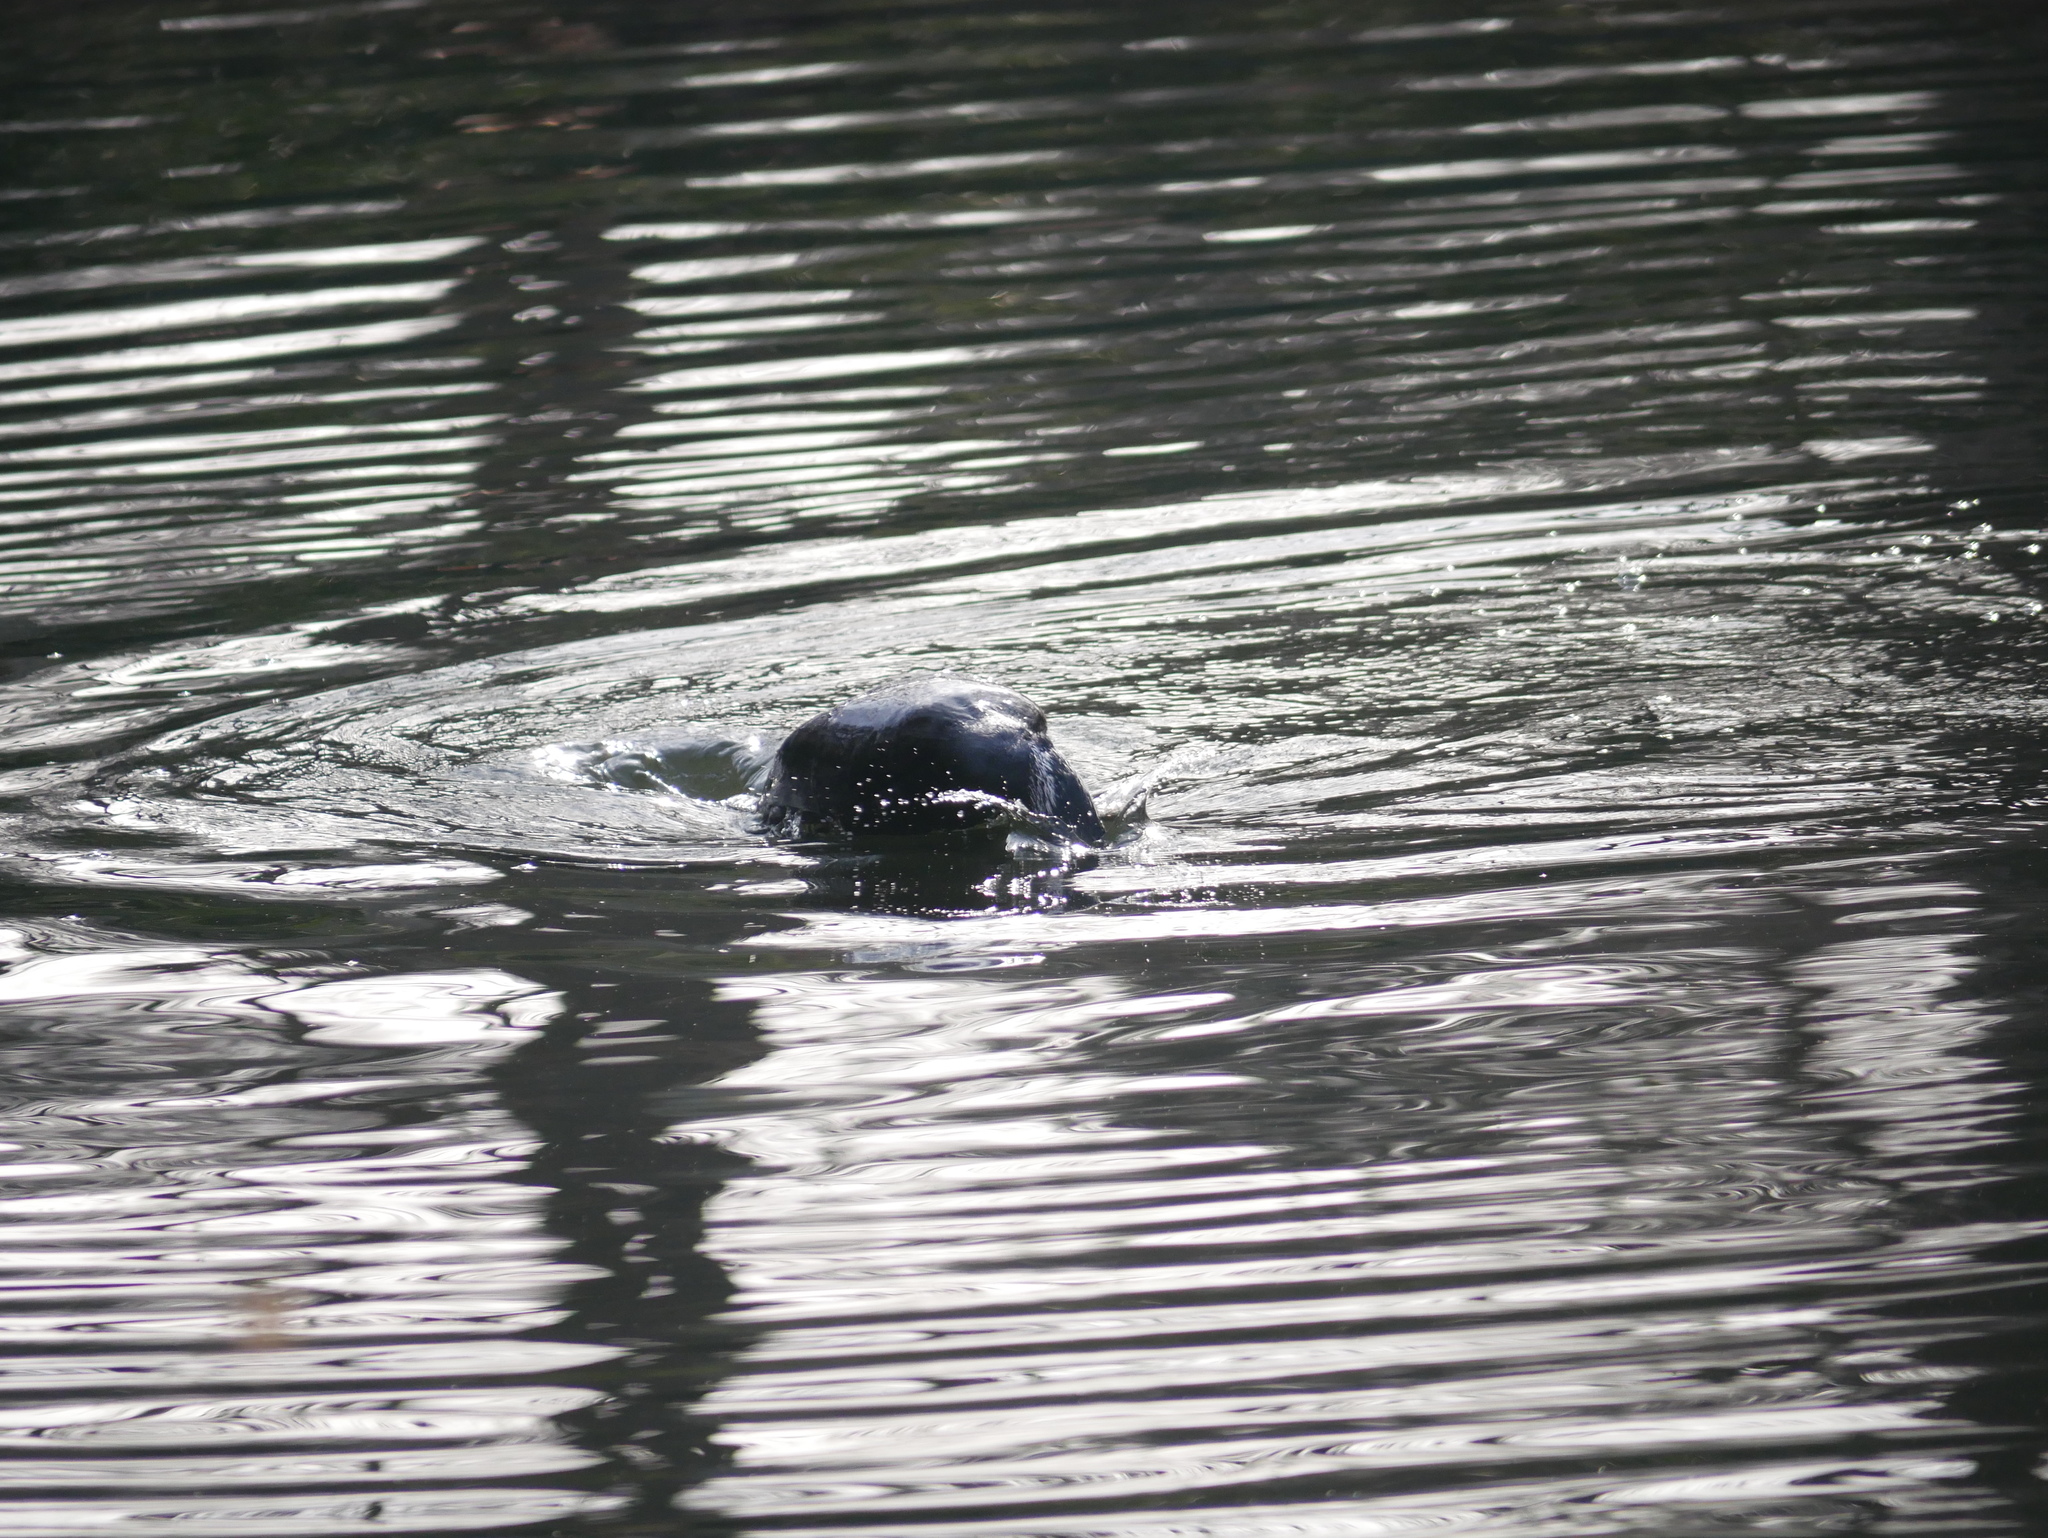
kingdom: Animalia
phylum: Chordata
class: Aves
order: Suliformes
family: Phalacrocoracidae
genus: Phalacrocorax
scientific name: Phalacrocorax carbo
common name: Great cormorant
